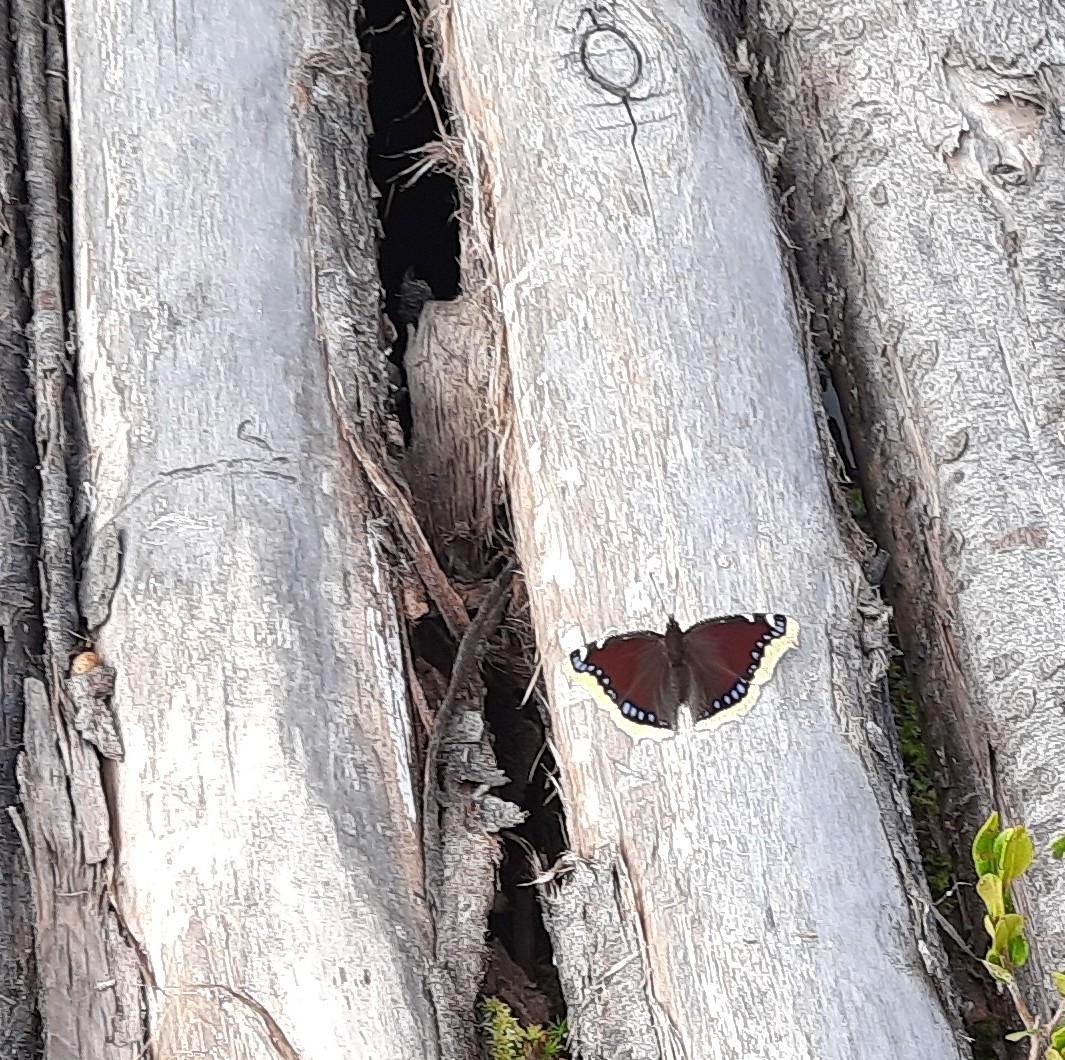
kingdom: Animalia
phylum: Arthropoda
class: Insecta
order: Lepidoptera
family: Nymphalidae
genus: Nymphalis
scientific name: Nymphalis antiopa
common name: Camberwell beauty
